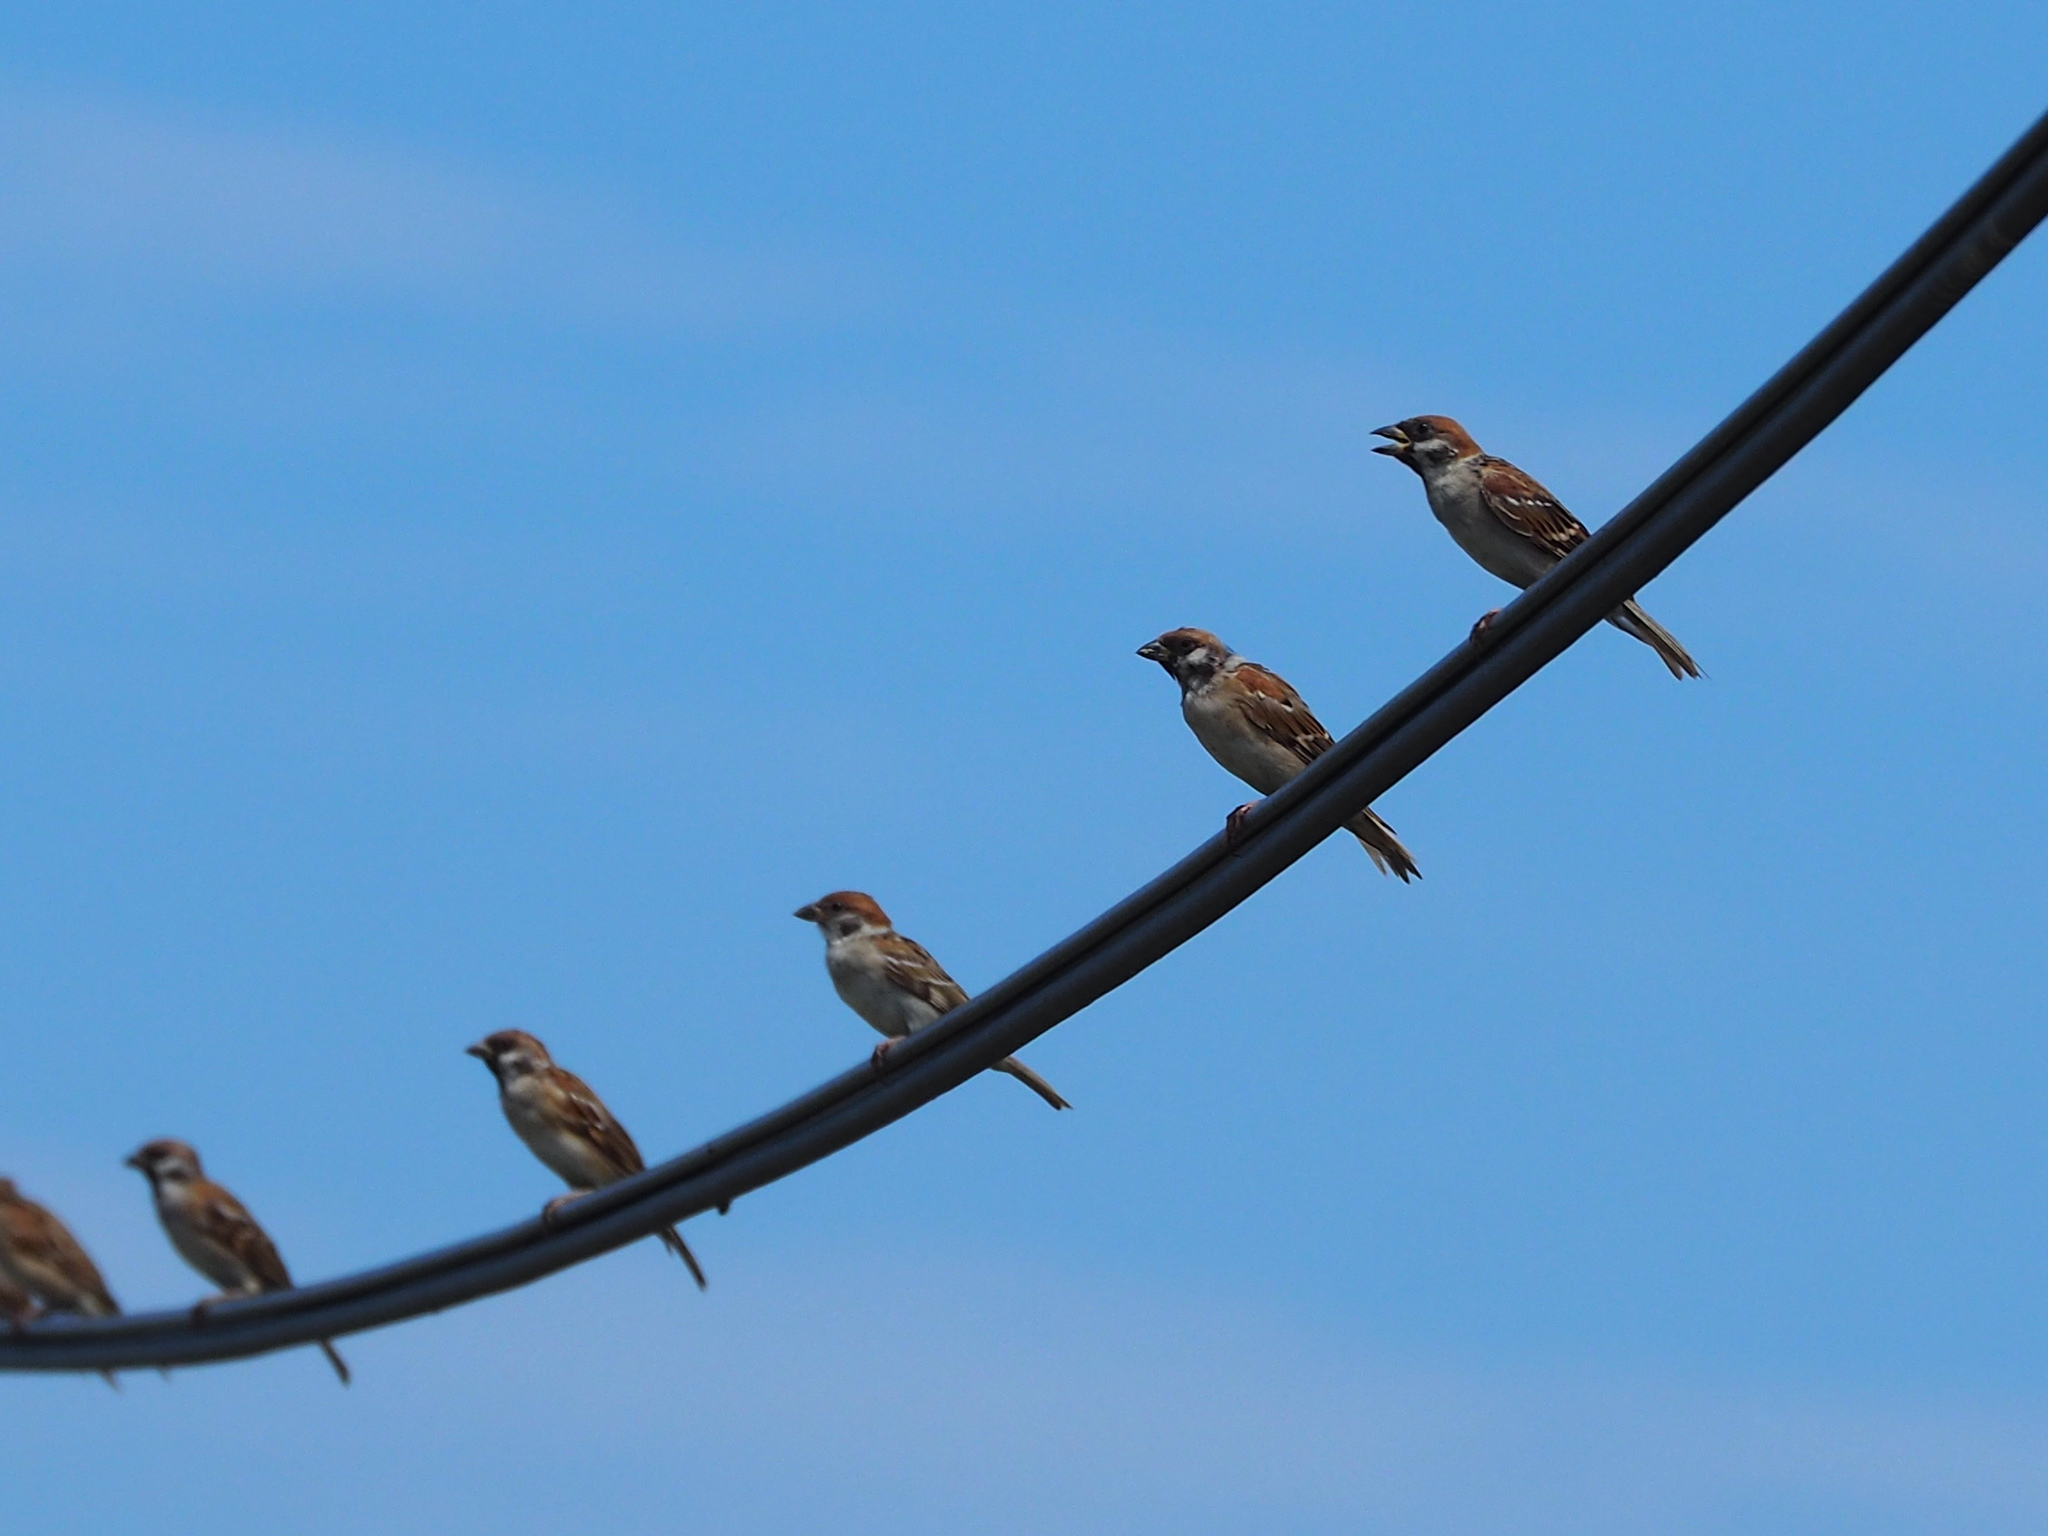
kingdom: Animalia
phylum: Chordata
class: Aves
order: Passeriformes
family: Passeridae
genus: Passer
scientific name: Passer montanus
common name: Eurasian tree sparrow
